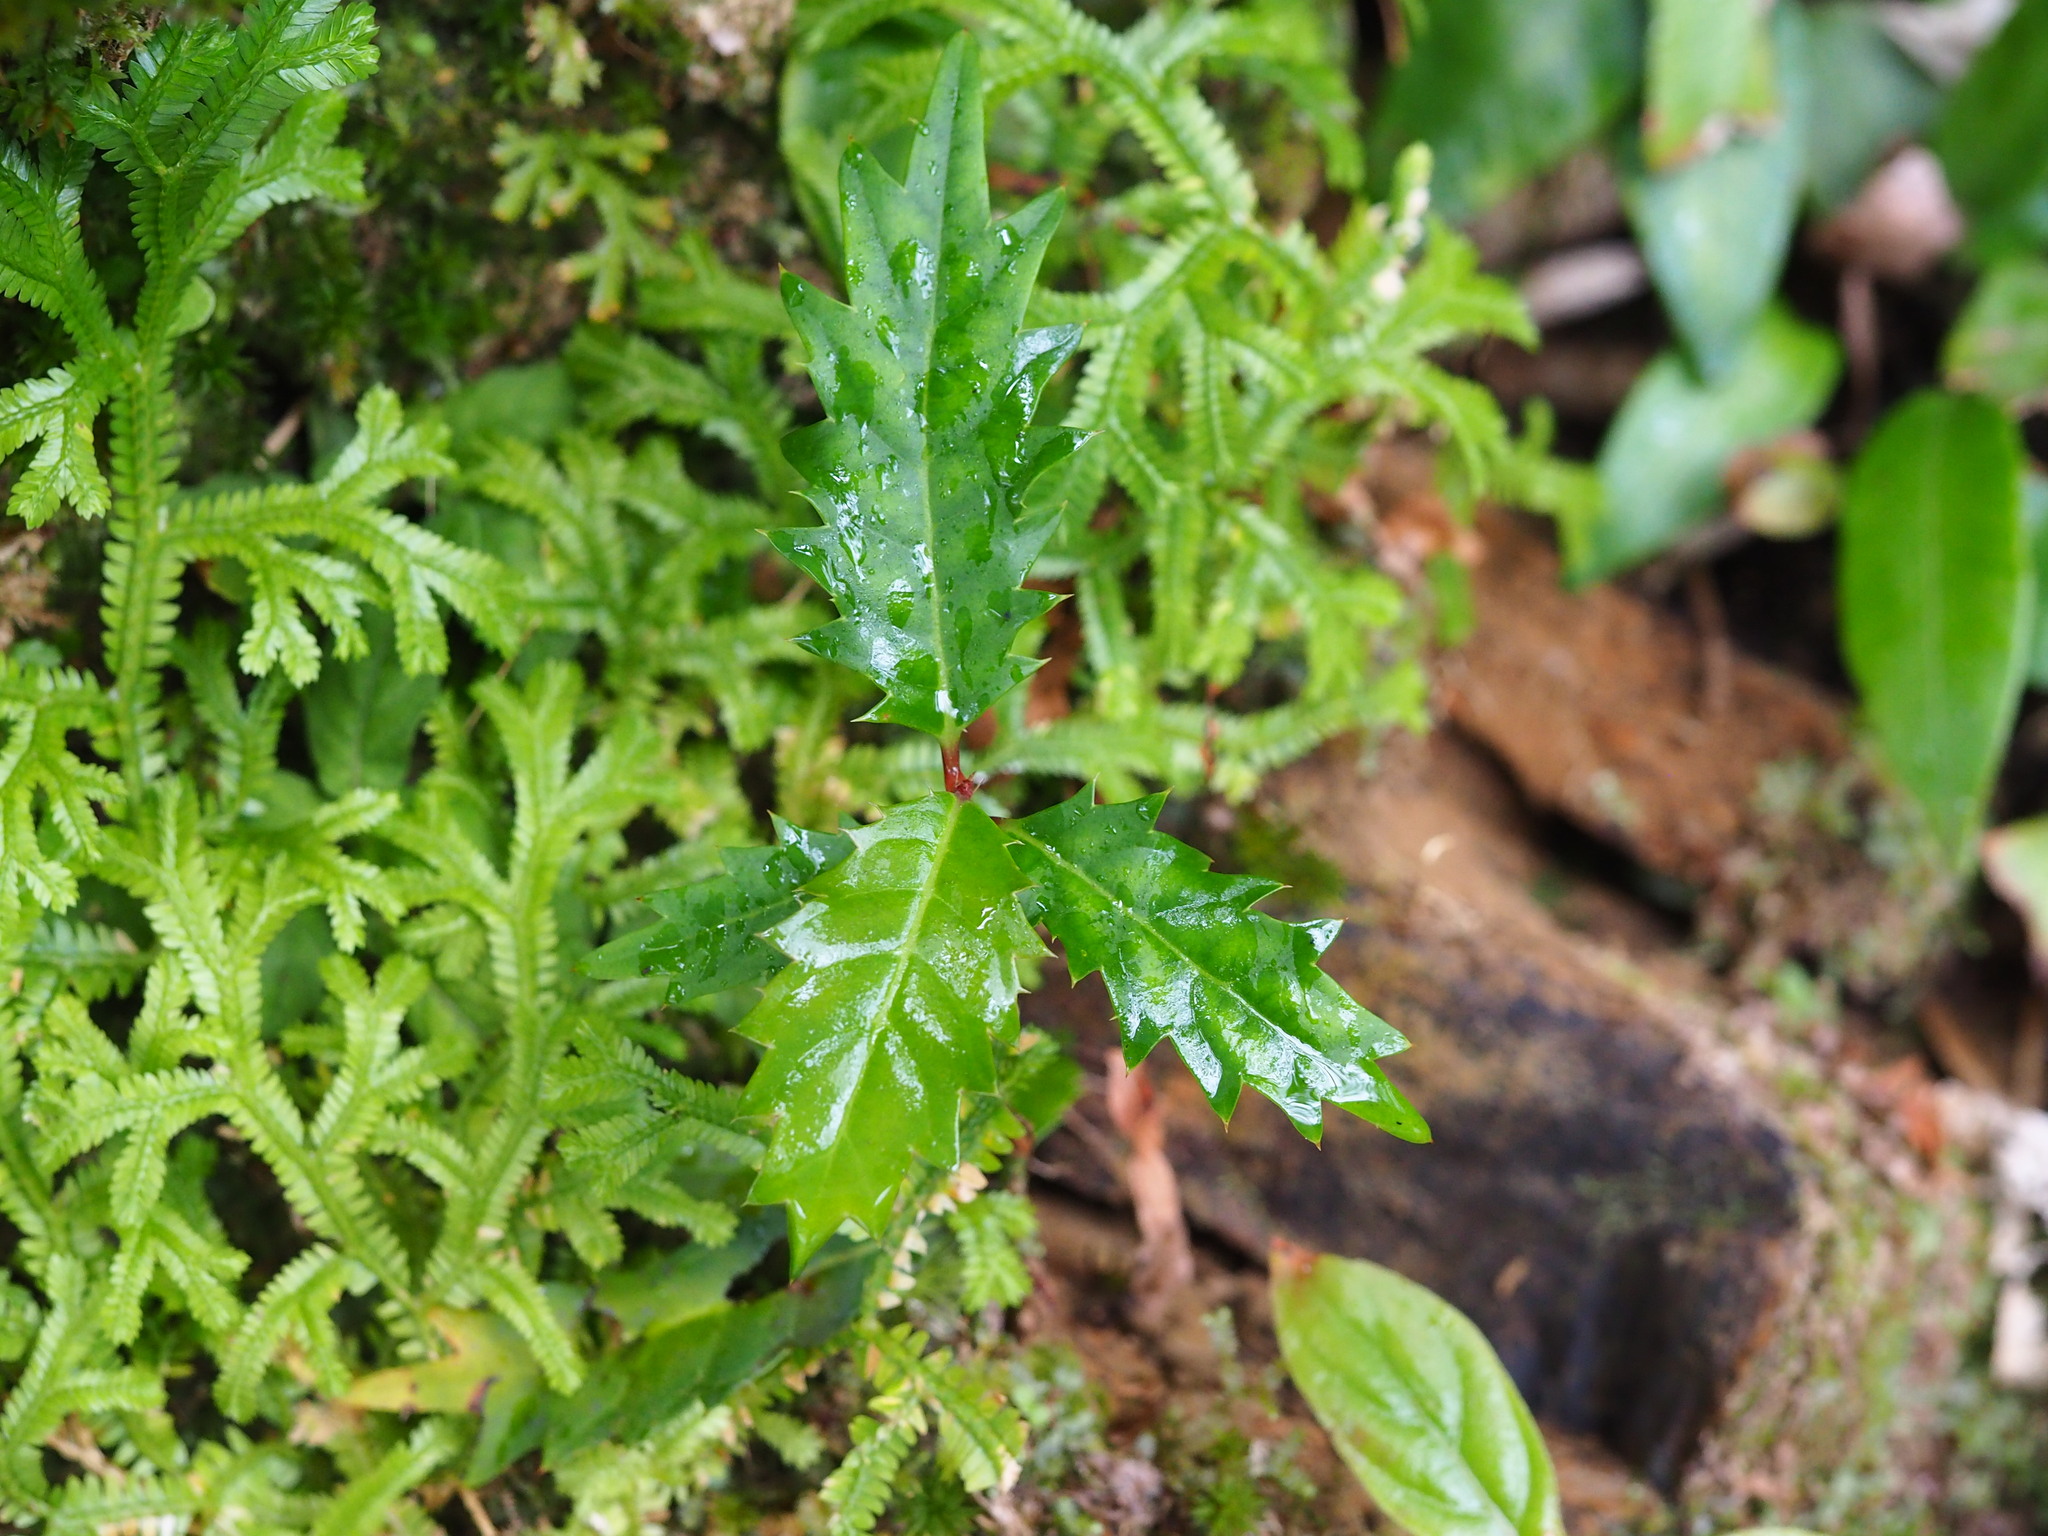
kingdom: Plantae
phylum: Tracheophyta
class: Magnoliopsida
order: Saxifragales
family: Iteaceae
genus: Itea
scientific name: Itea oldhamii
